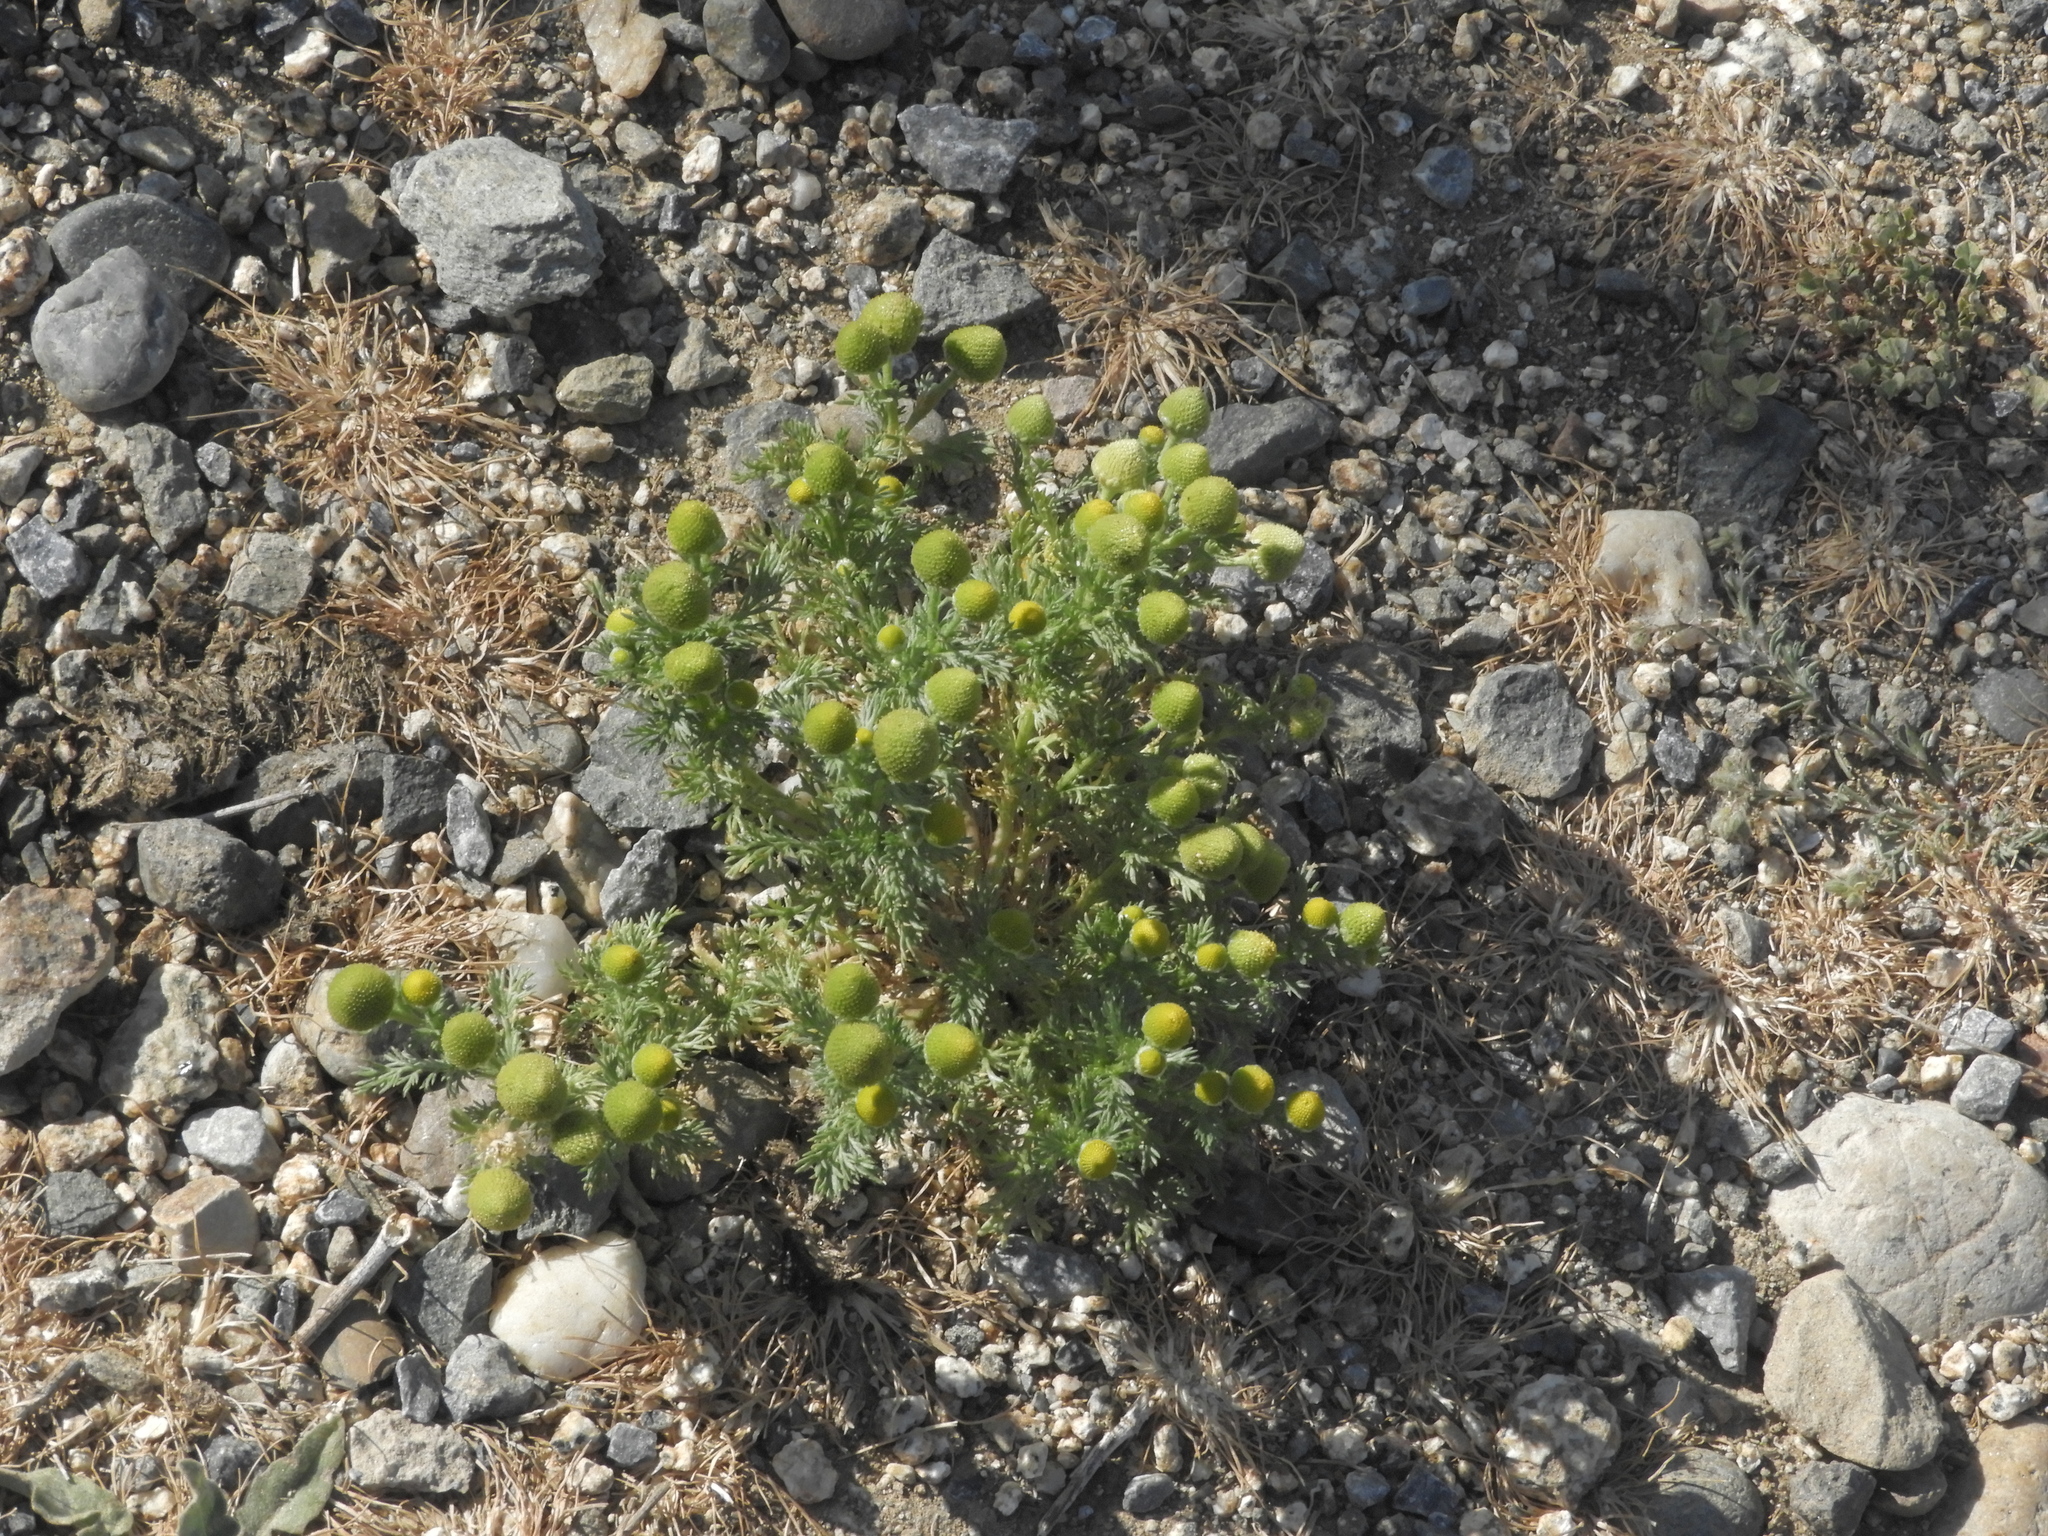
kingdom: Plantae
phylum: Tracheophyta
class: Magnoliopsida
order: Asterales
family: Asteraceae
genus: Matricaria
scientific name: Matricaria discoidea
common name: Disc mayweed
